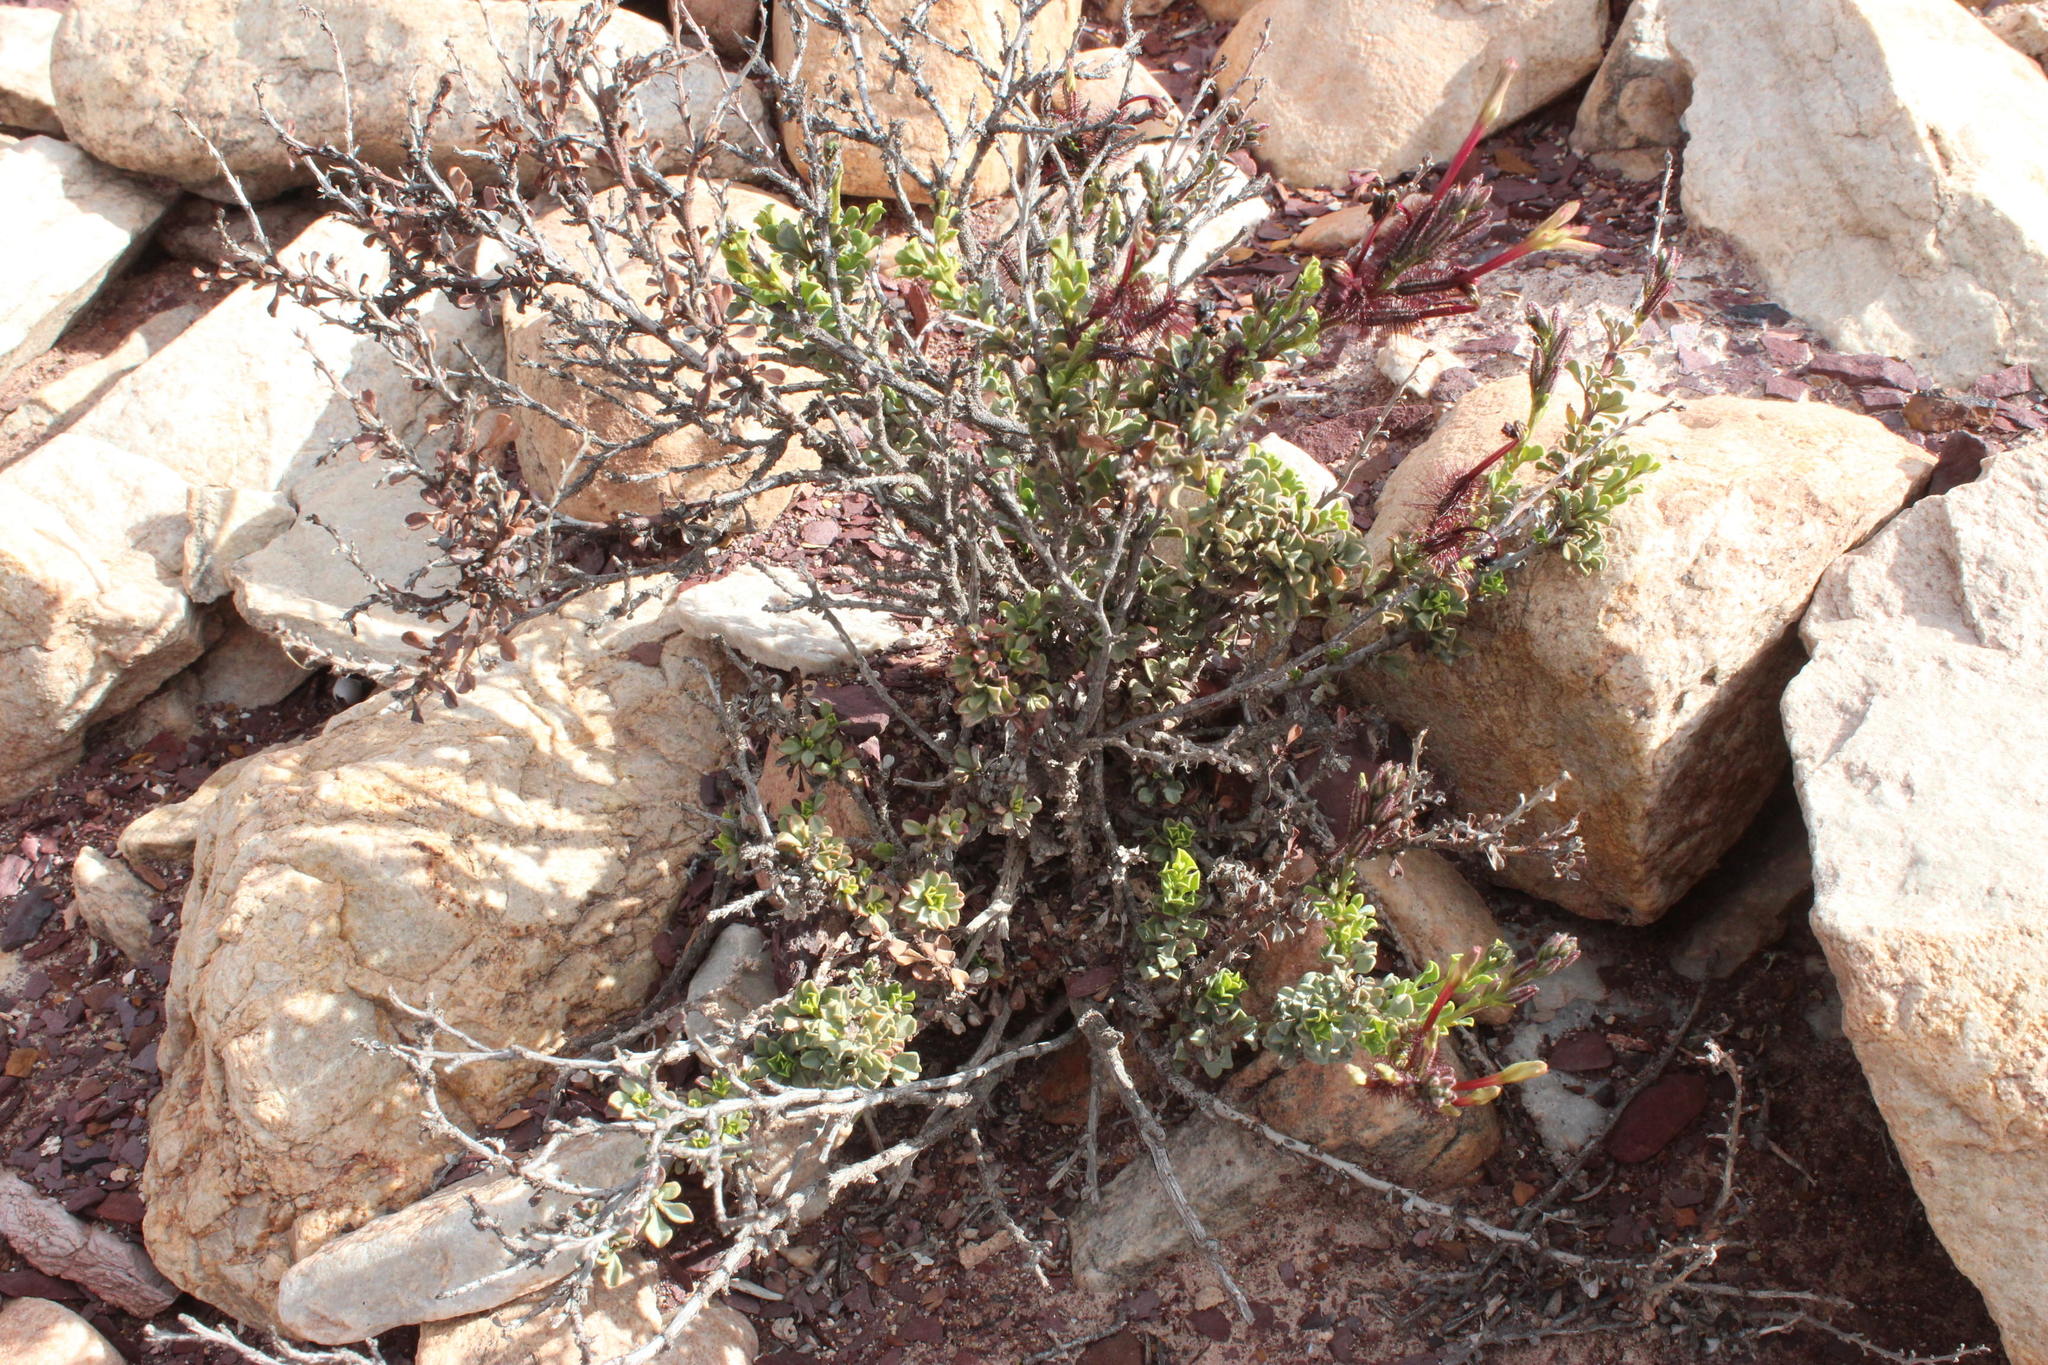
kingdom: Plantae
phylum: Tracheophyta
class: Magnoliopsida
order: Caryophyllales
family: Plumbaginaceae
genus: Plumbago
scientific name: Plumbago tristis
